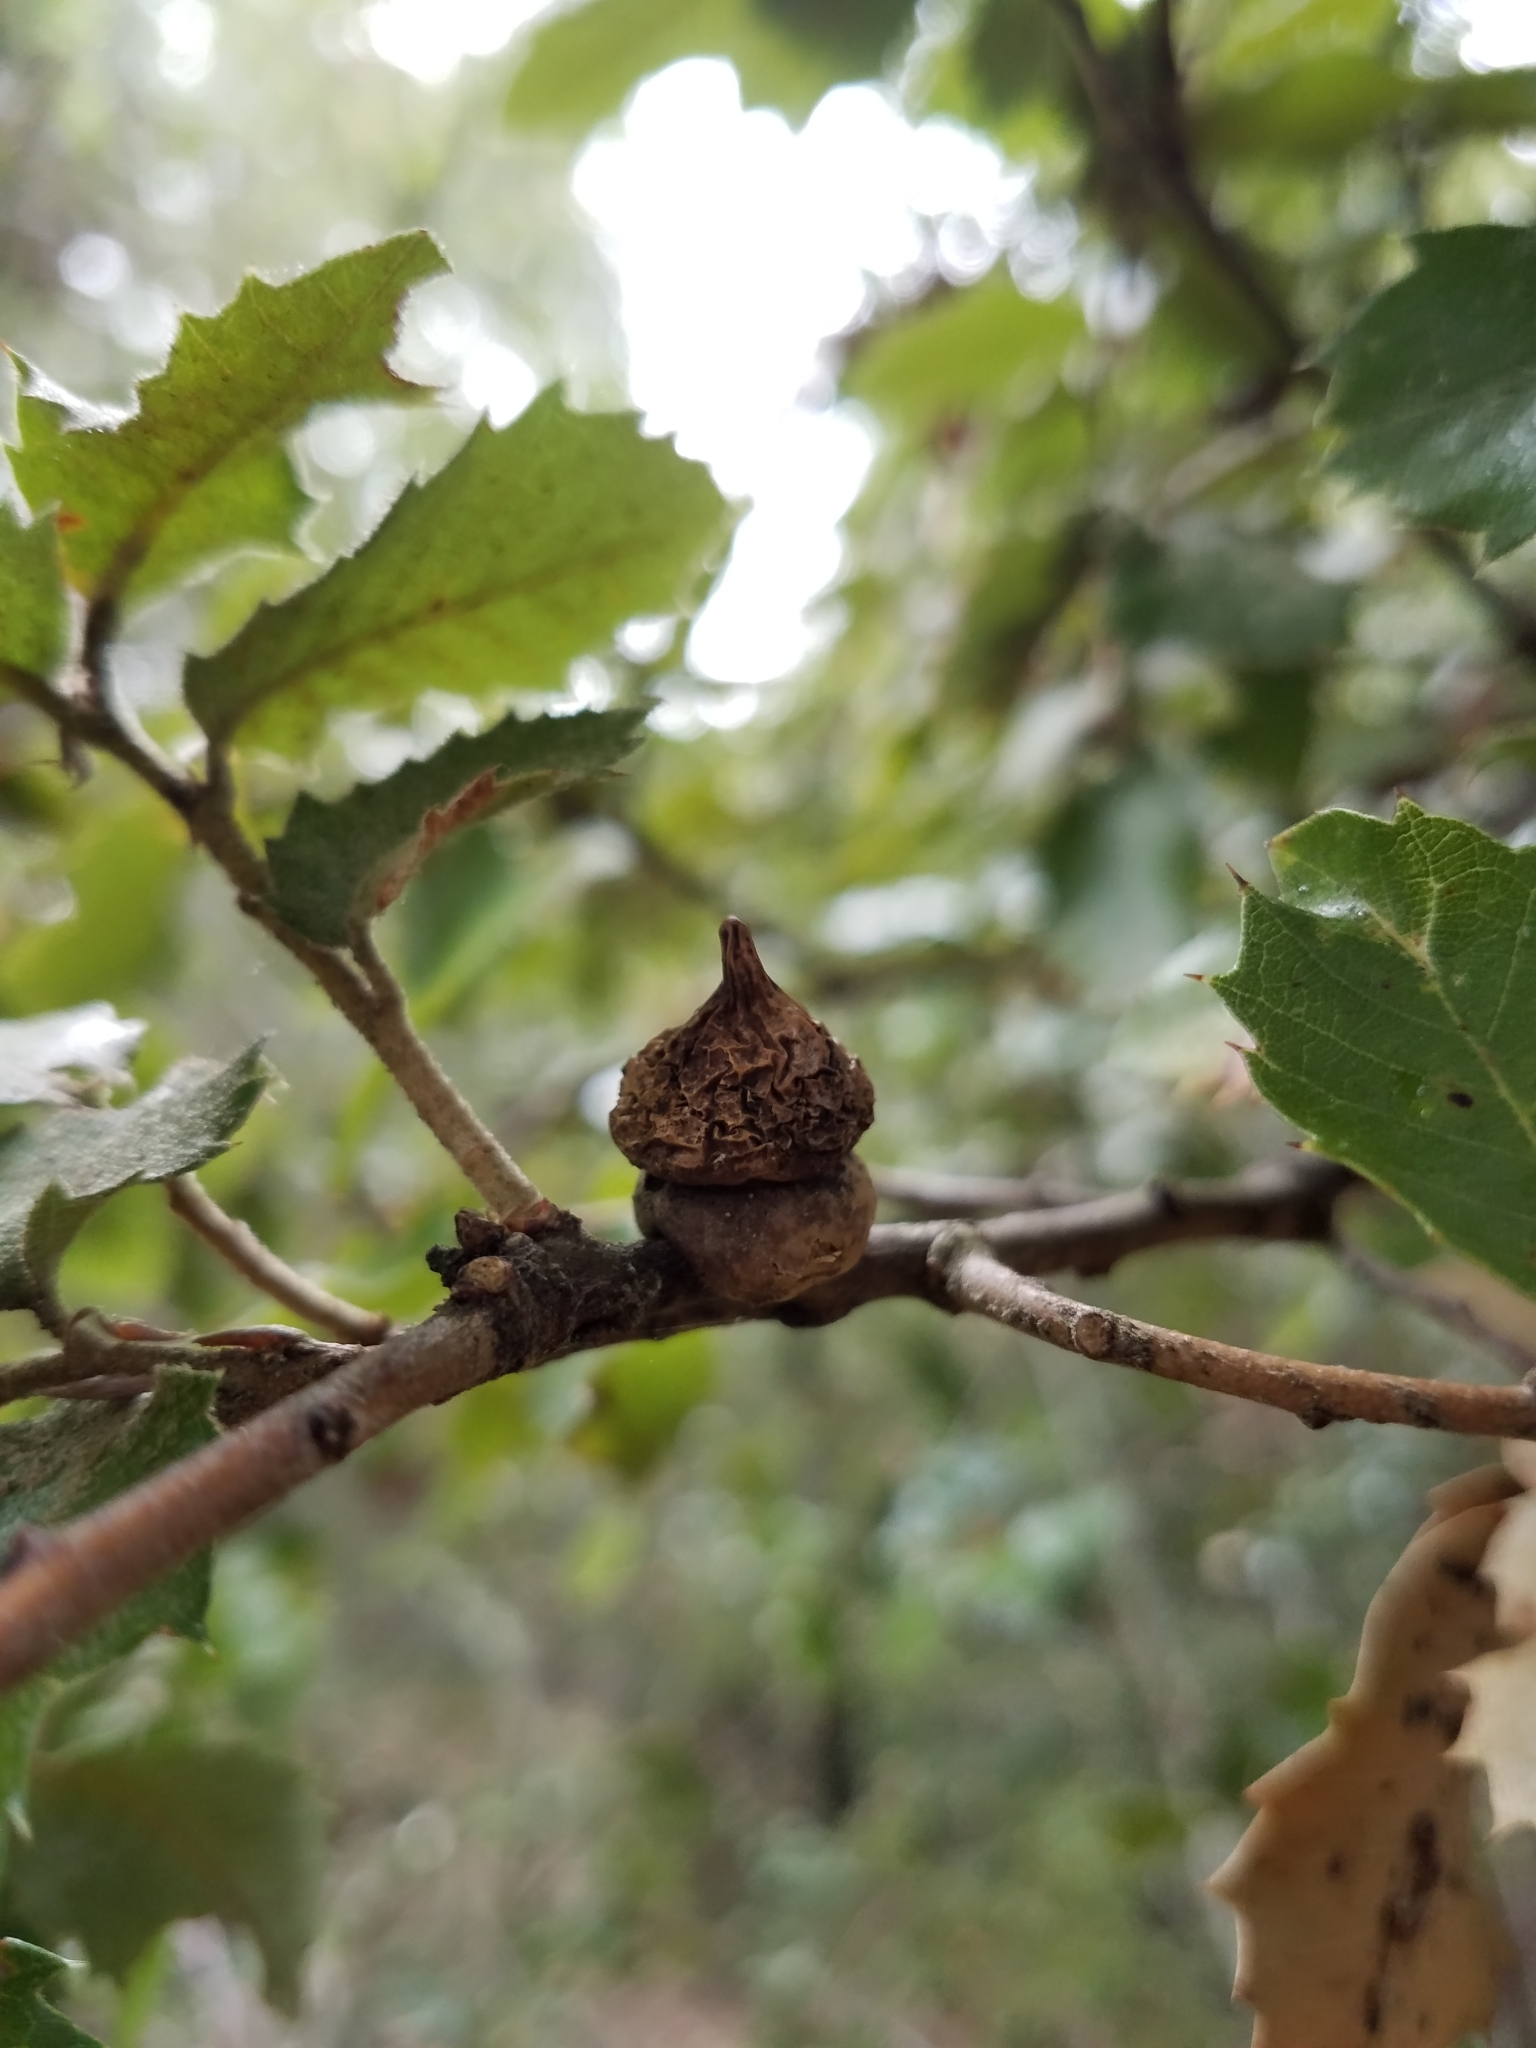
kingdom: Animalia
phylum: Arthropoda
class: Insecta
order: Hymenoptera
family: Cynipidae
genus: Heteroecus
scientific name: Heteroecus
